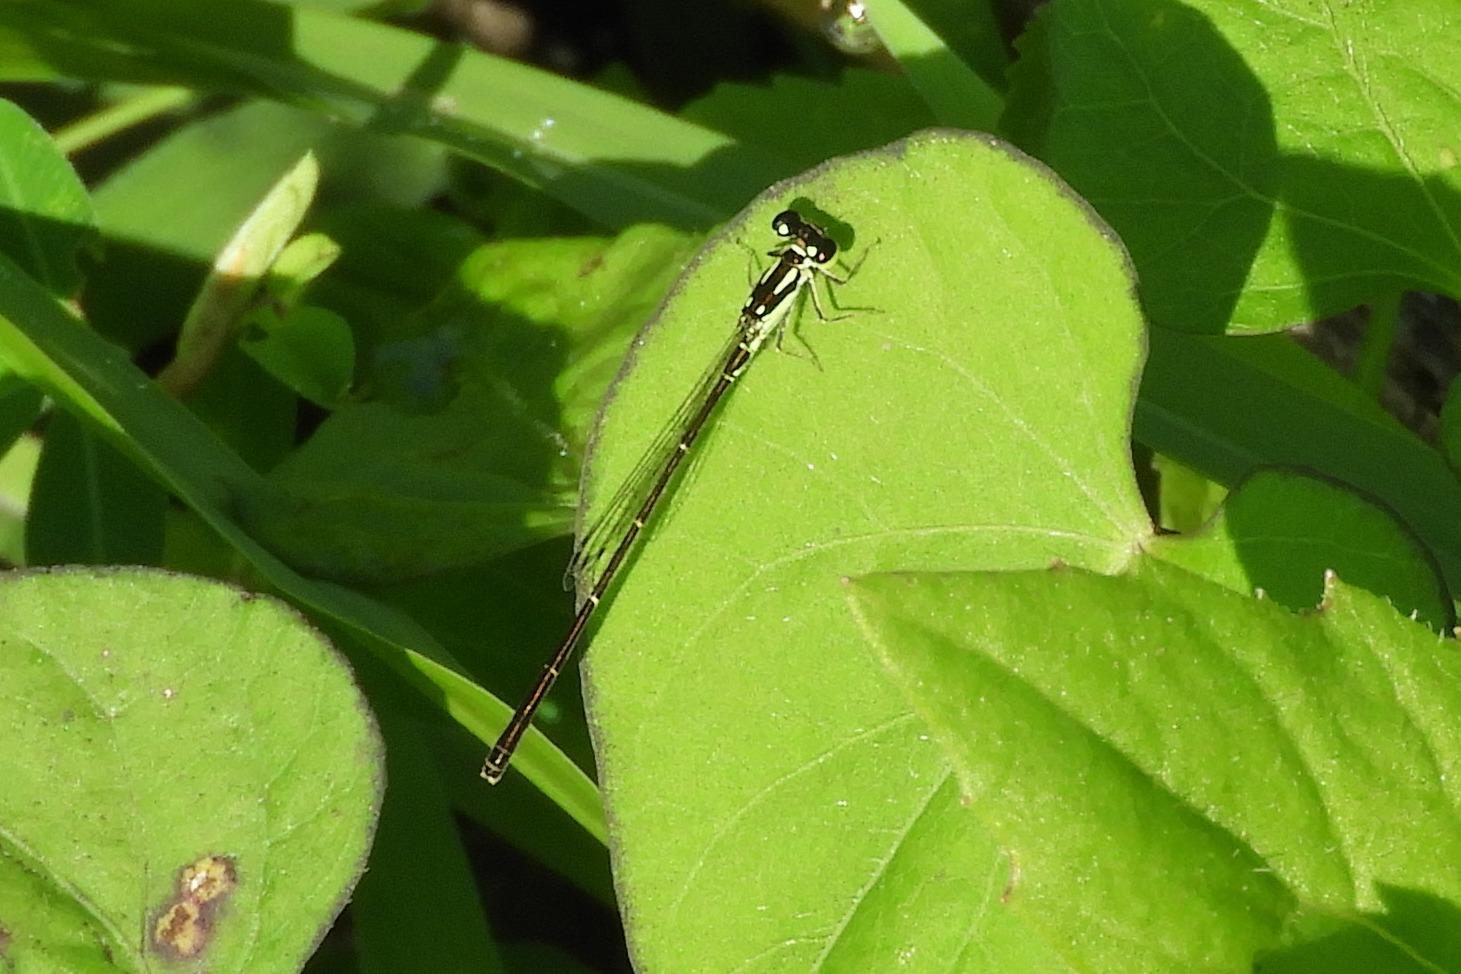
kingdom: Animalia
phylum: Arthropoda
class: Insecta
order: Odonata
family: Coenagrionidae
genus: Ischnura
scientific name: Ischnura posita
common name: Fragile forktail
